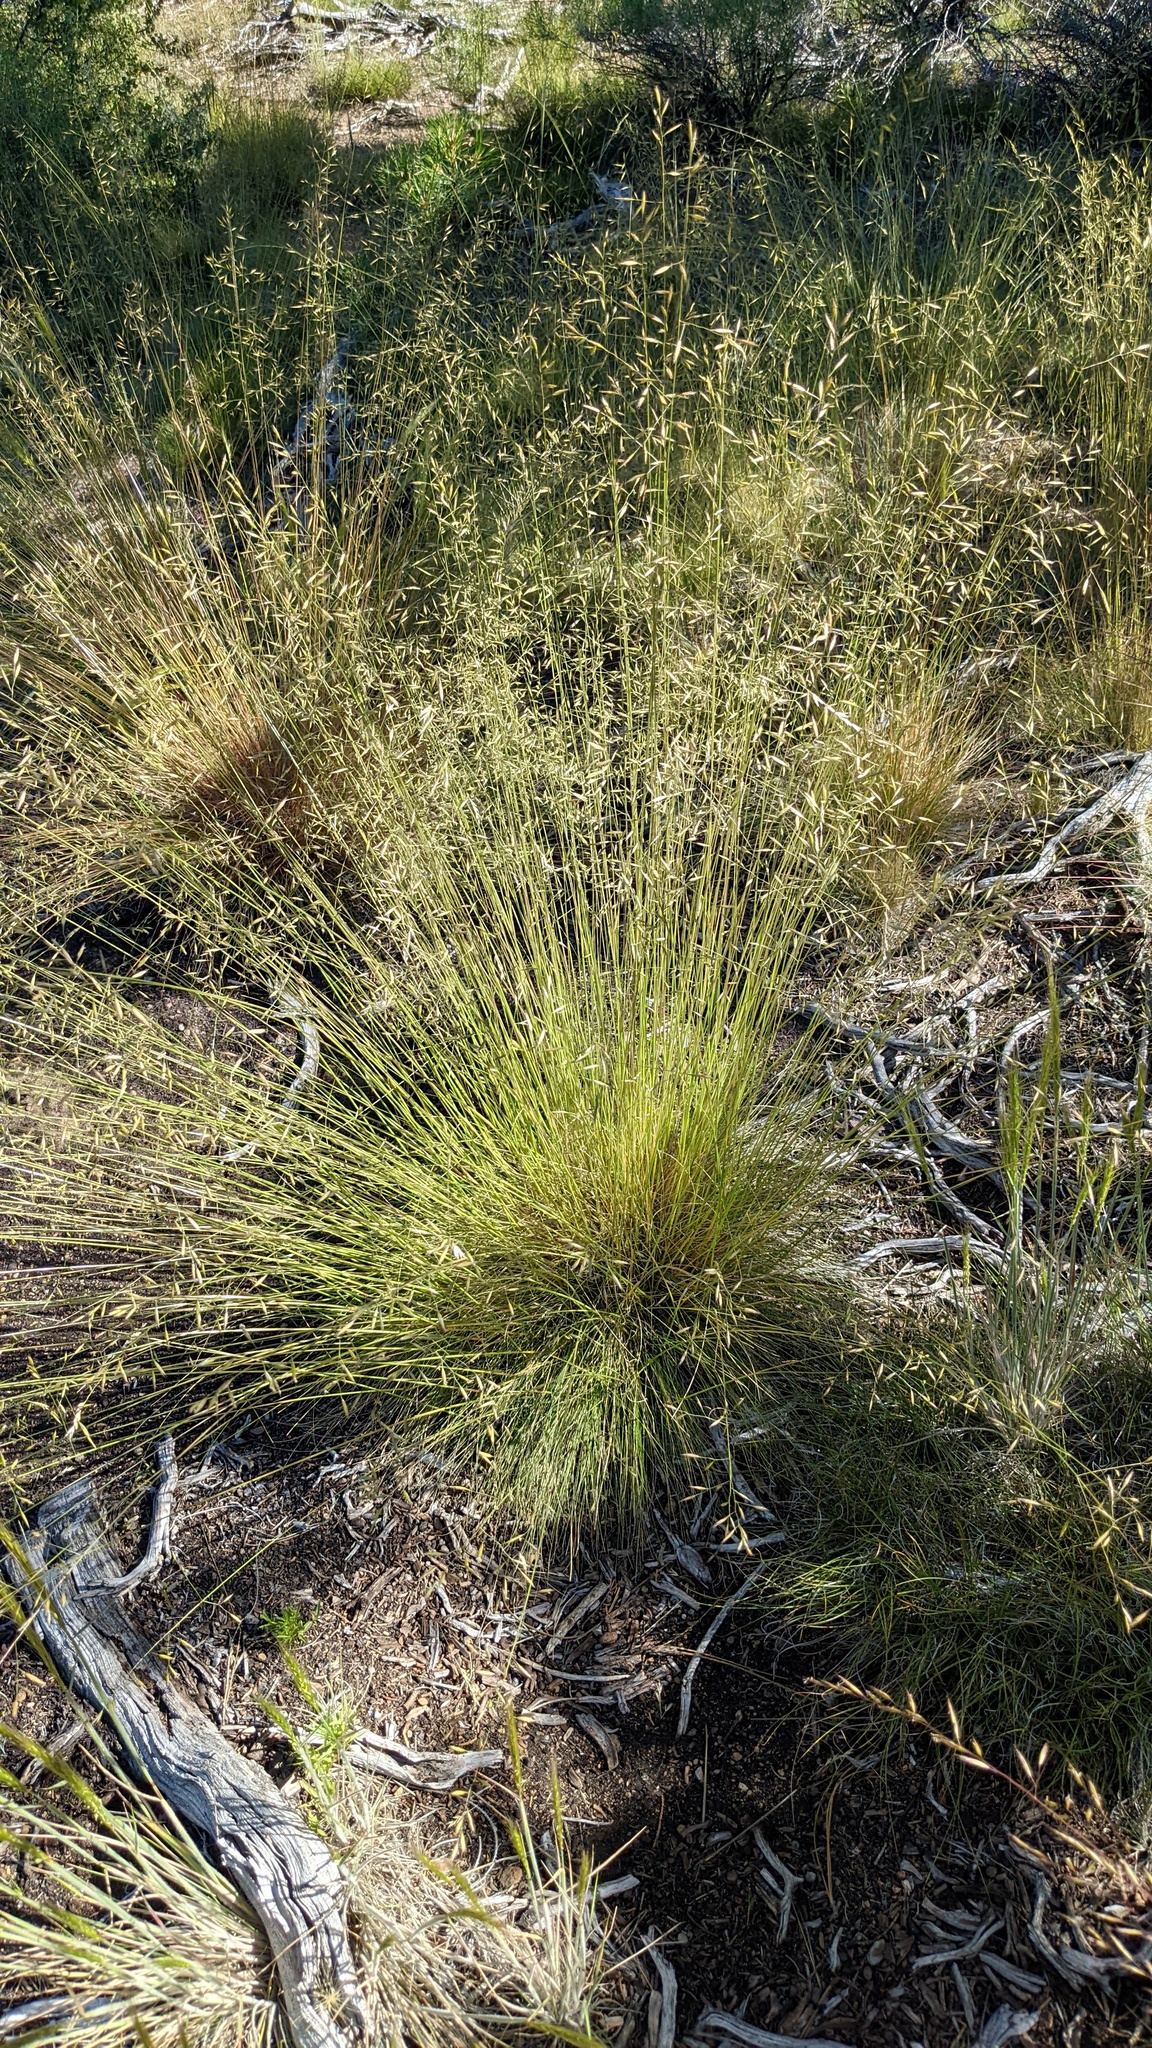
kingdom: Plantae
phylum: Tracheophyta
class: Liliopsida
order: Poales
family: Poaceae
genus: Festuca
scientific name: Festuca idahoensis
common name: Idaho fescue
